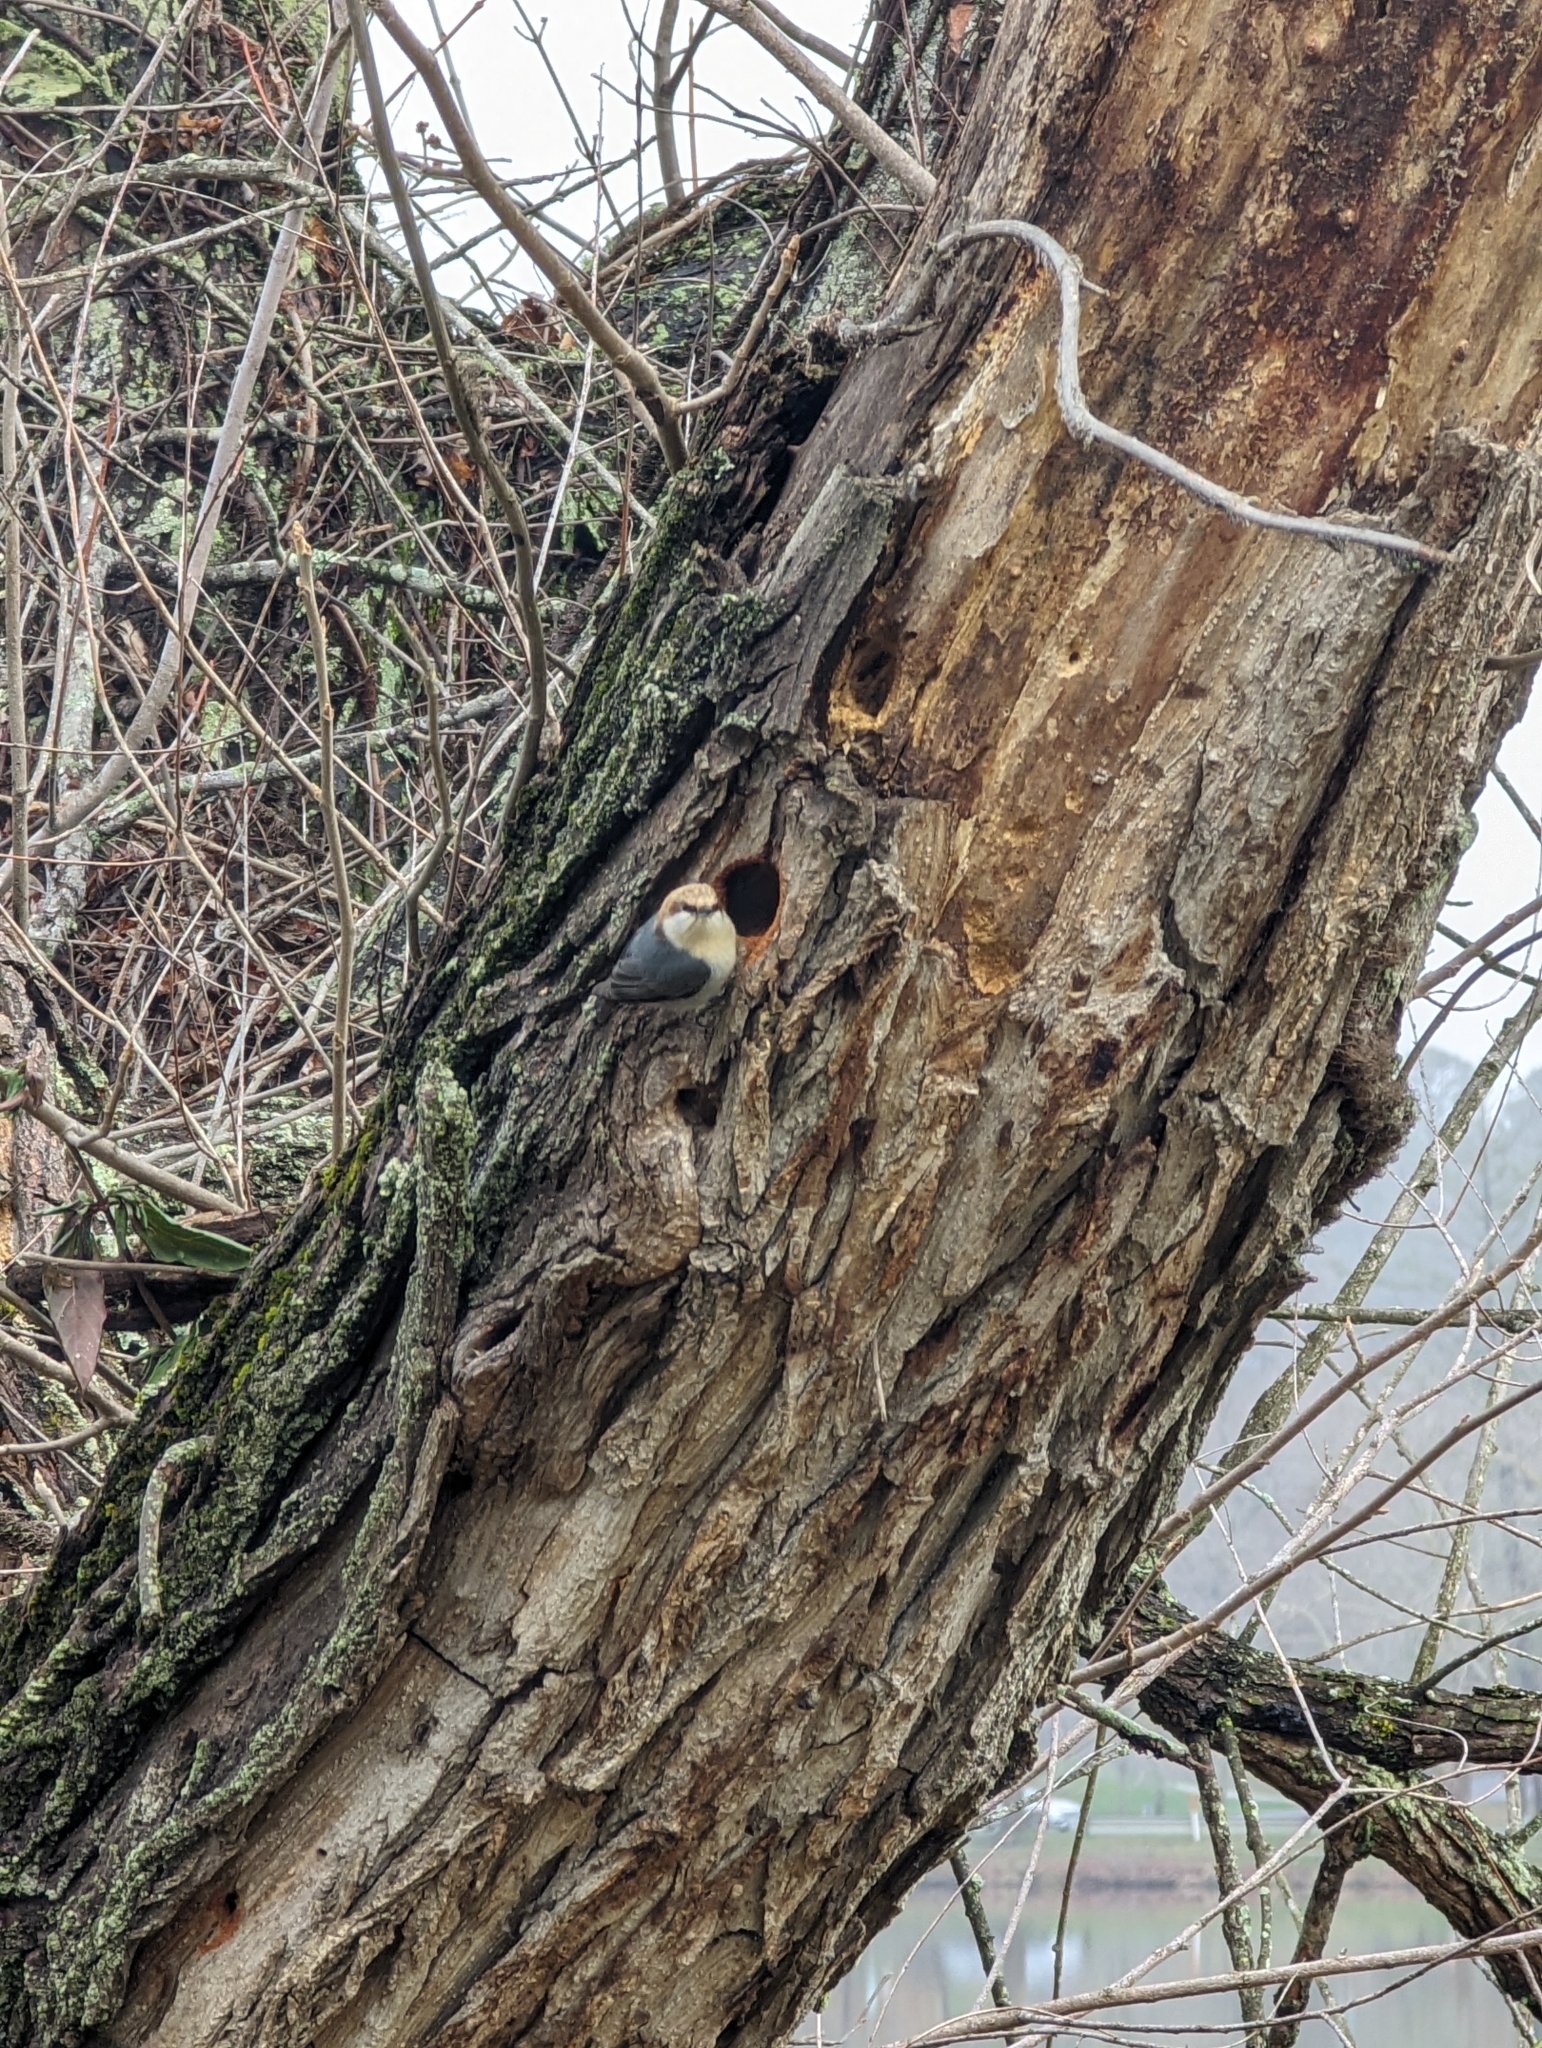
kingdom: Animalia
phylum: Chordata
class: Aves
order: Passeriformes
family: Sittidae
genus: Sitta
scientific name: Sitta pusilla
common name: Brown-headed nuthatch
